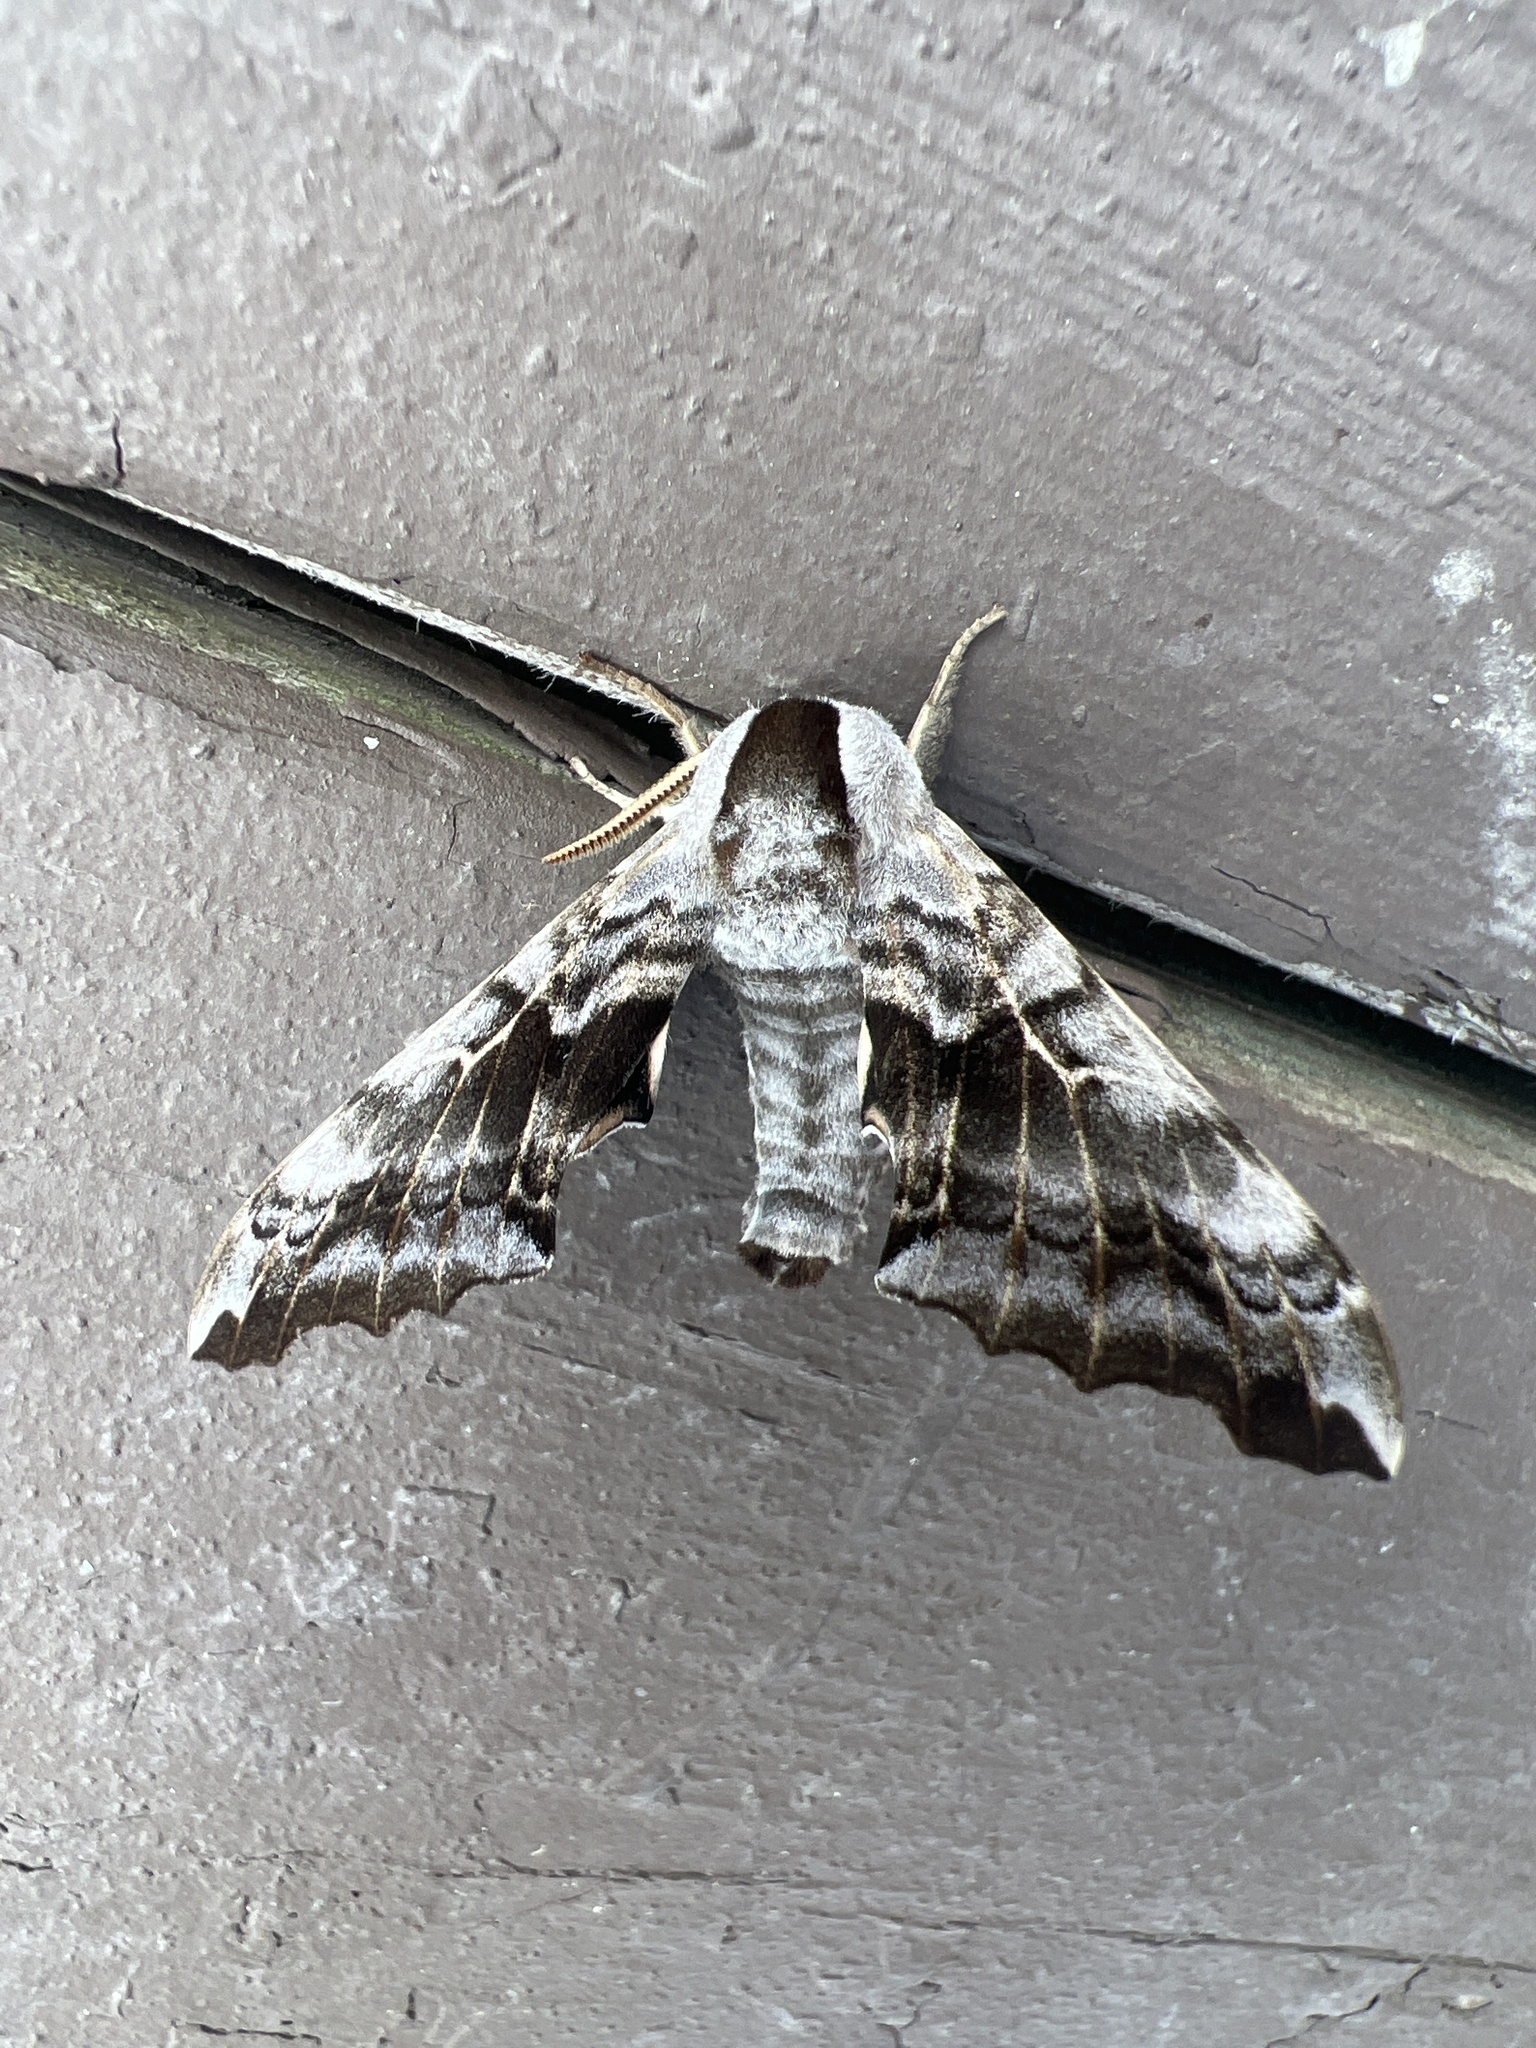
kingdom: Animalia
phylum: Arthropoda
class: Insecta
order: Lepidoptera
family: Sphingidae
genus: Smerinthus
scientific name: Smerinthus cerisyi
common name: Cerisy's sphinx moth
